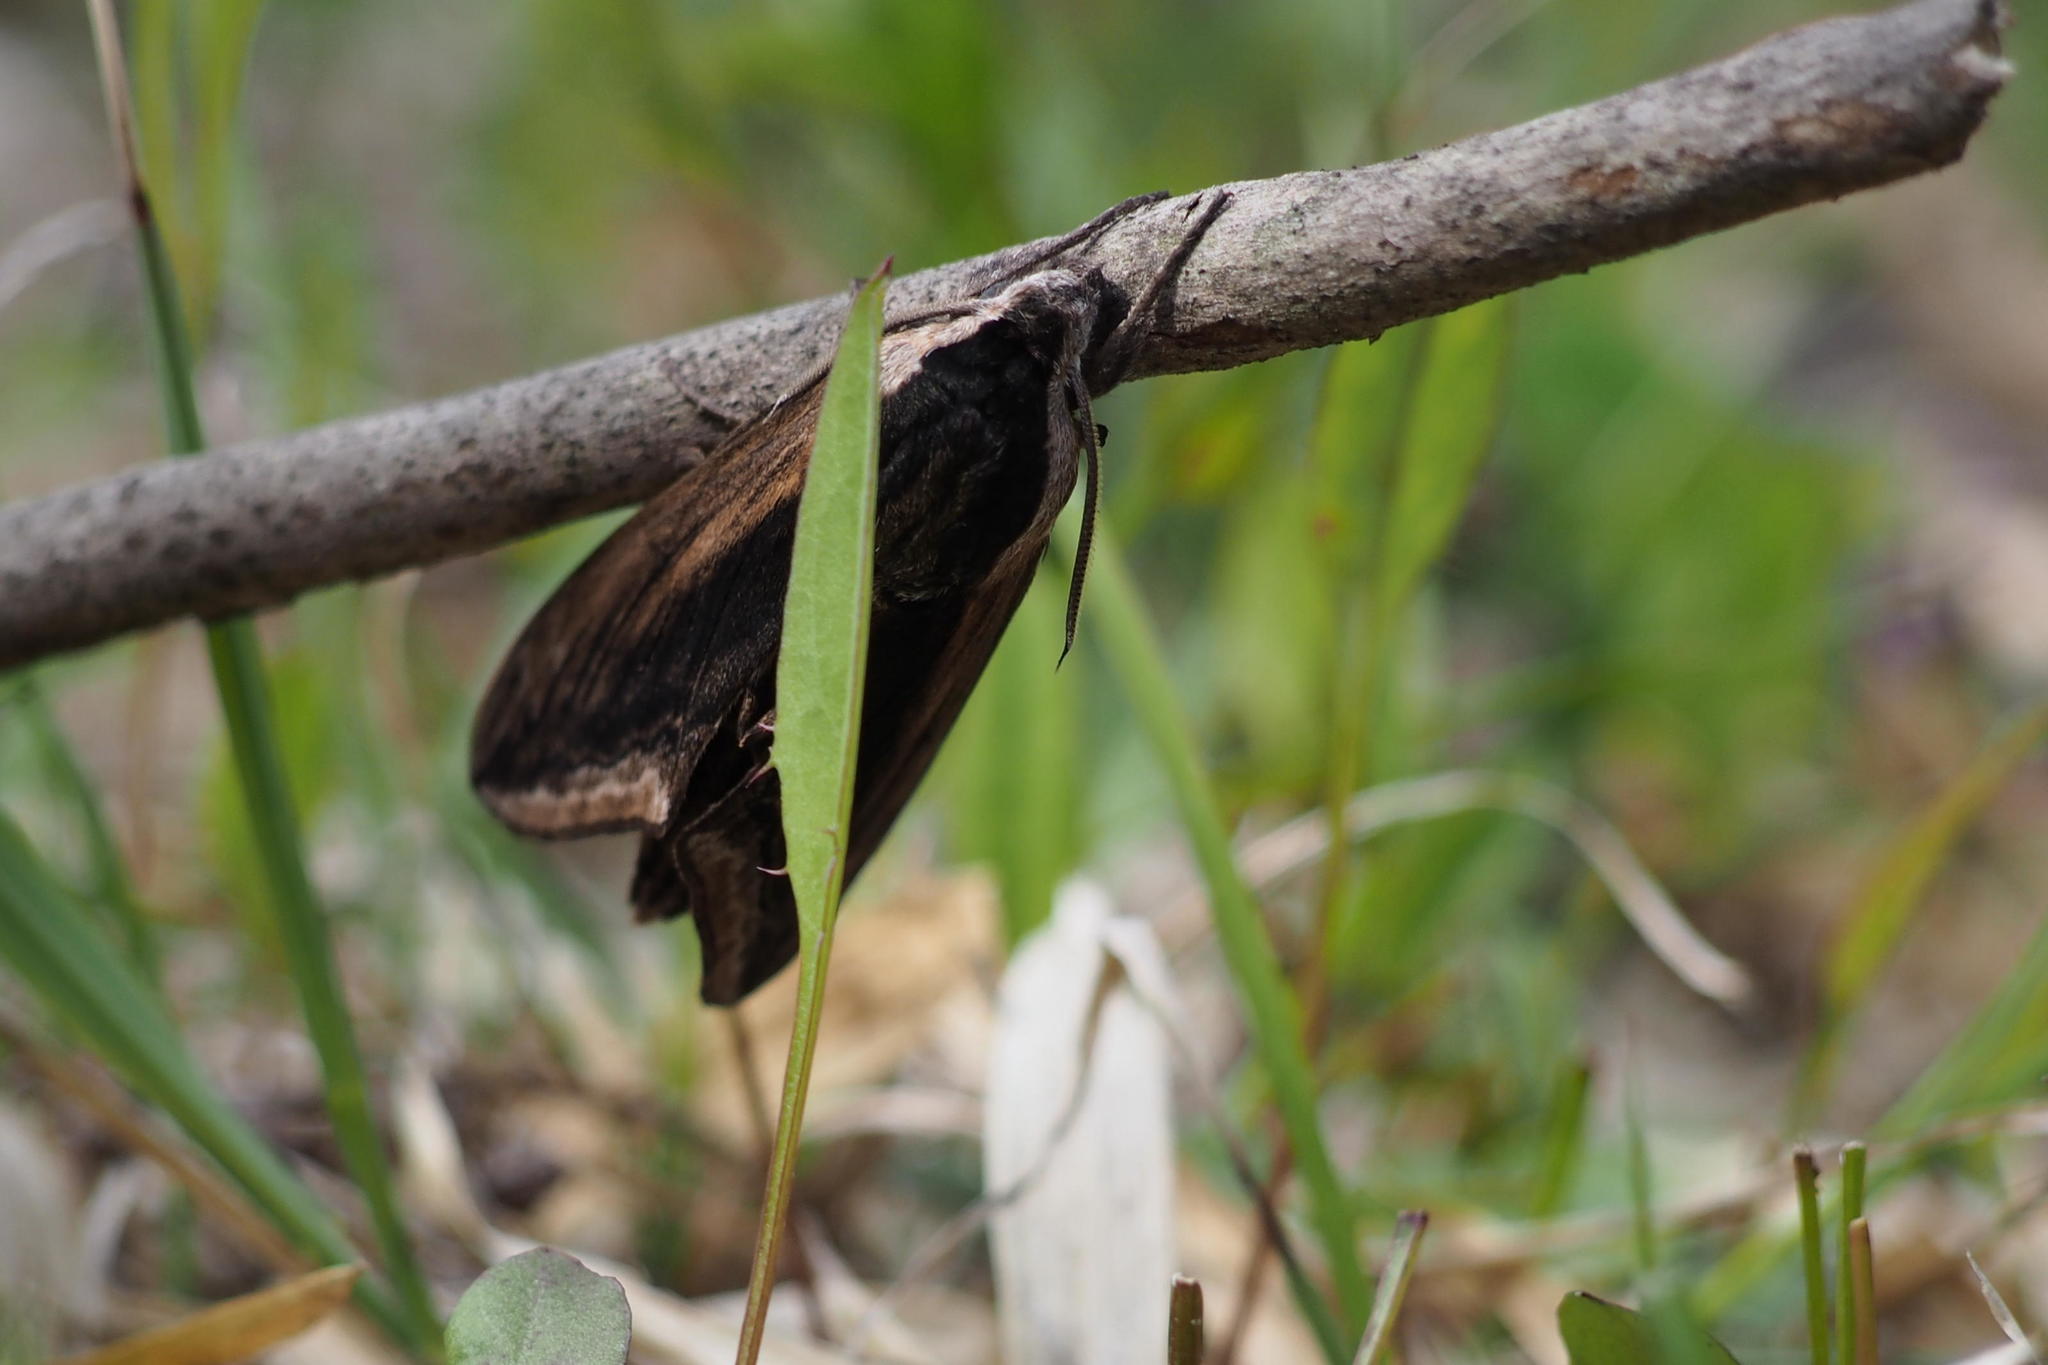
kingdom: Animalia
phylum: Arthropoda
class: Insecta
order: Lepidoptera
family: Sphingidae
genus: Sphinx
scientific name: Sphinx constricta
